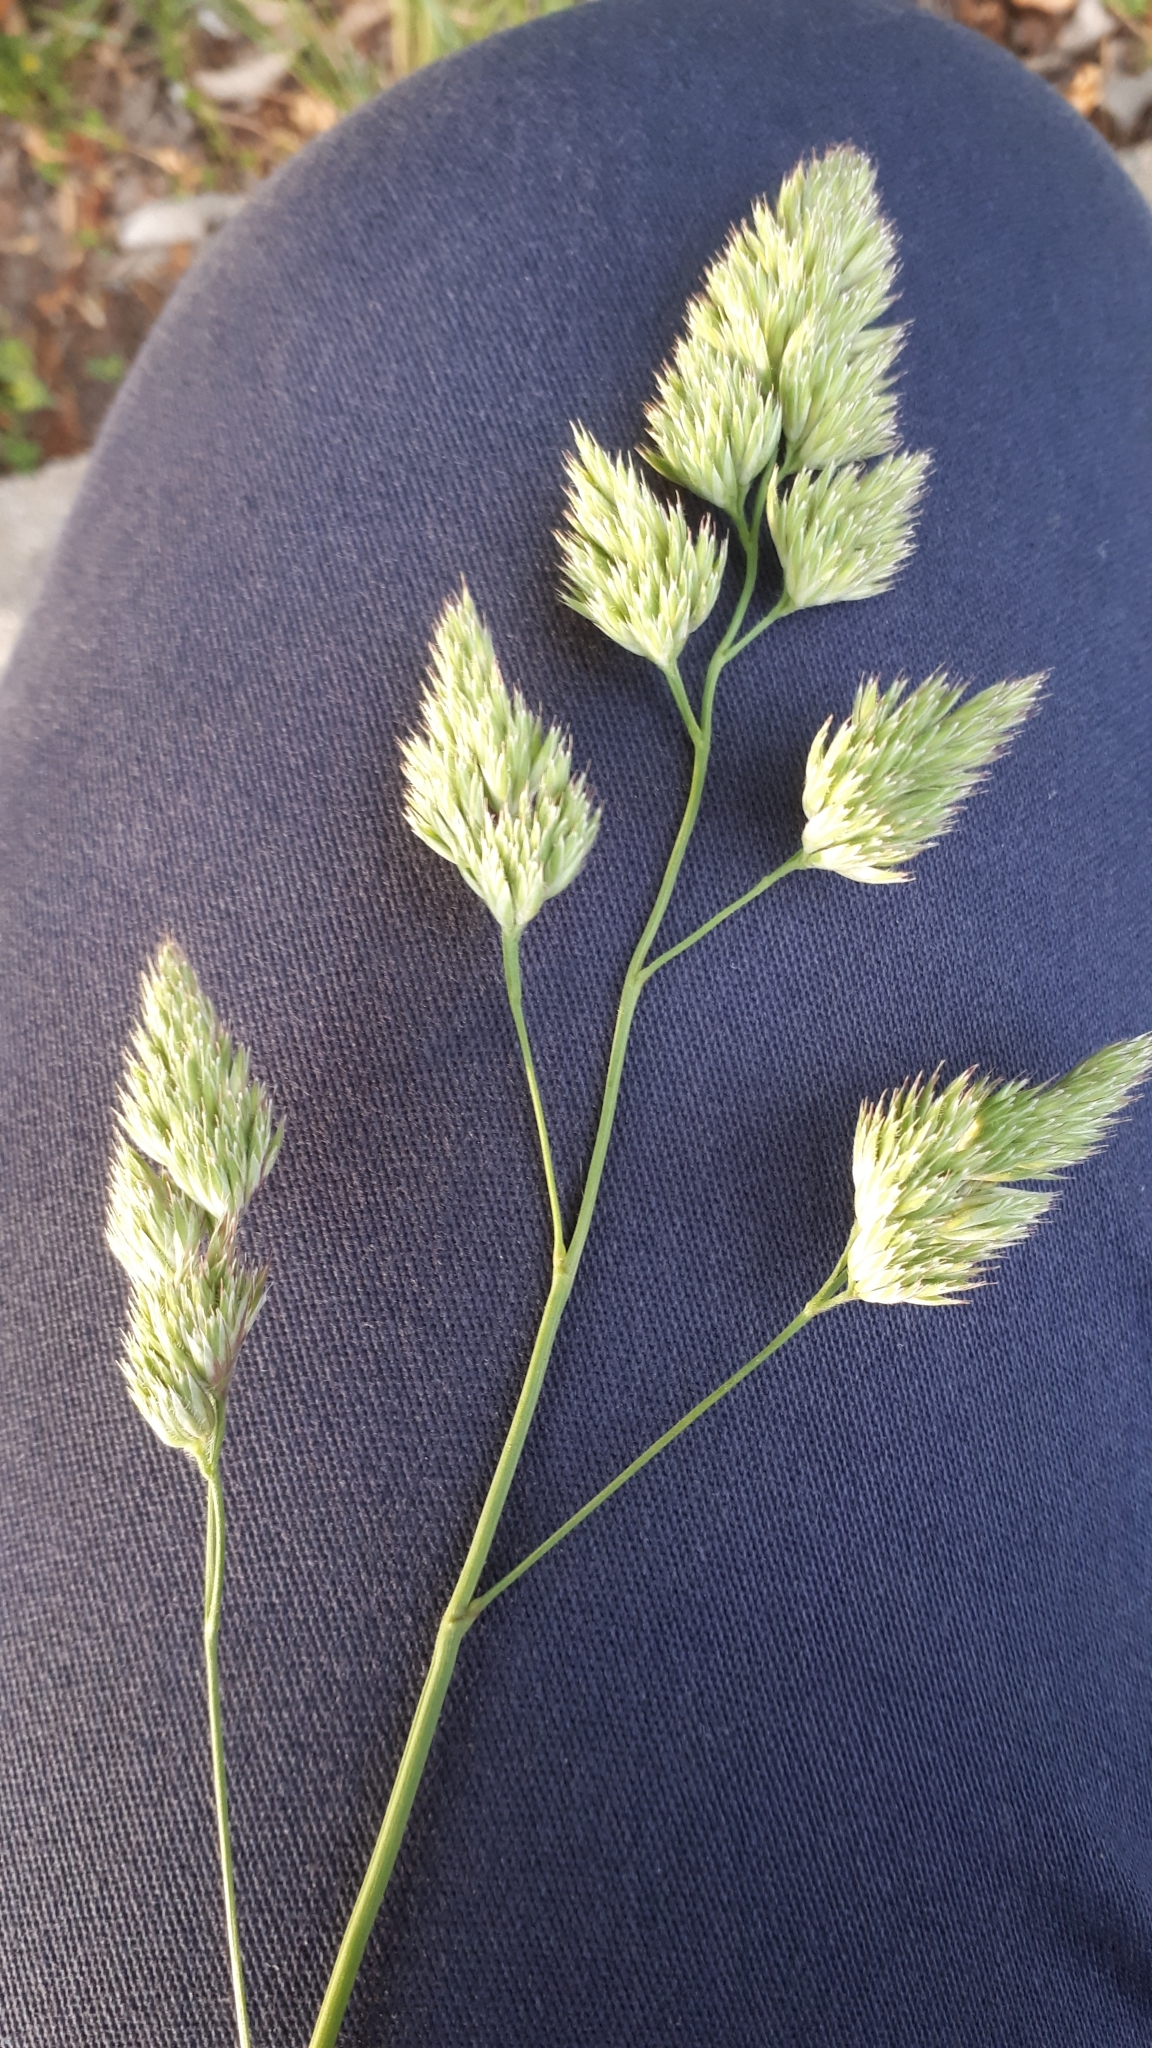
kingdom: Plantae
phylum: Tracheophyta
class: Liliopsida
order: Poales
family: Poaceae
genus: Dactylis
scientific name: Dactylis glomerata
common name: Orchardgrass
